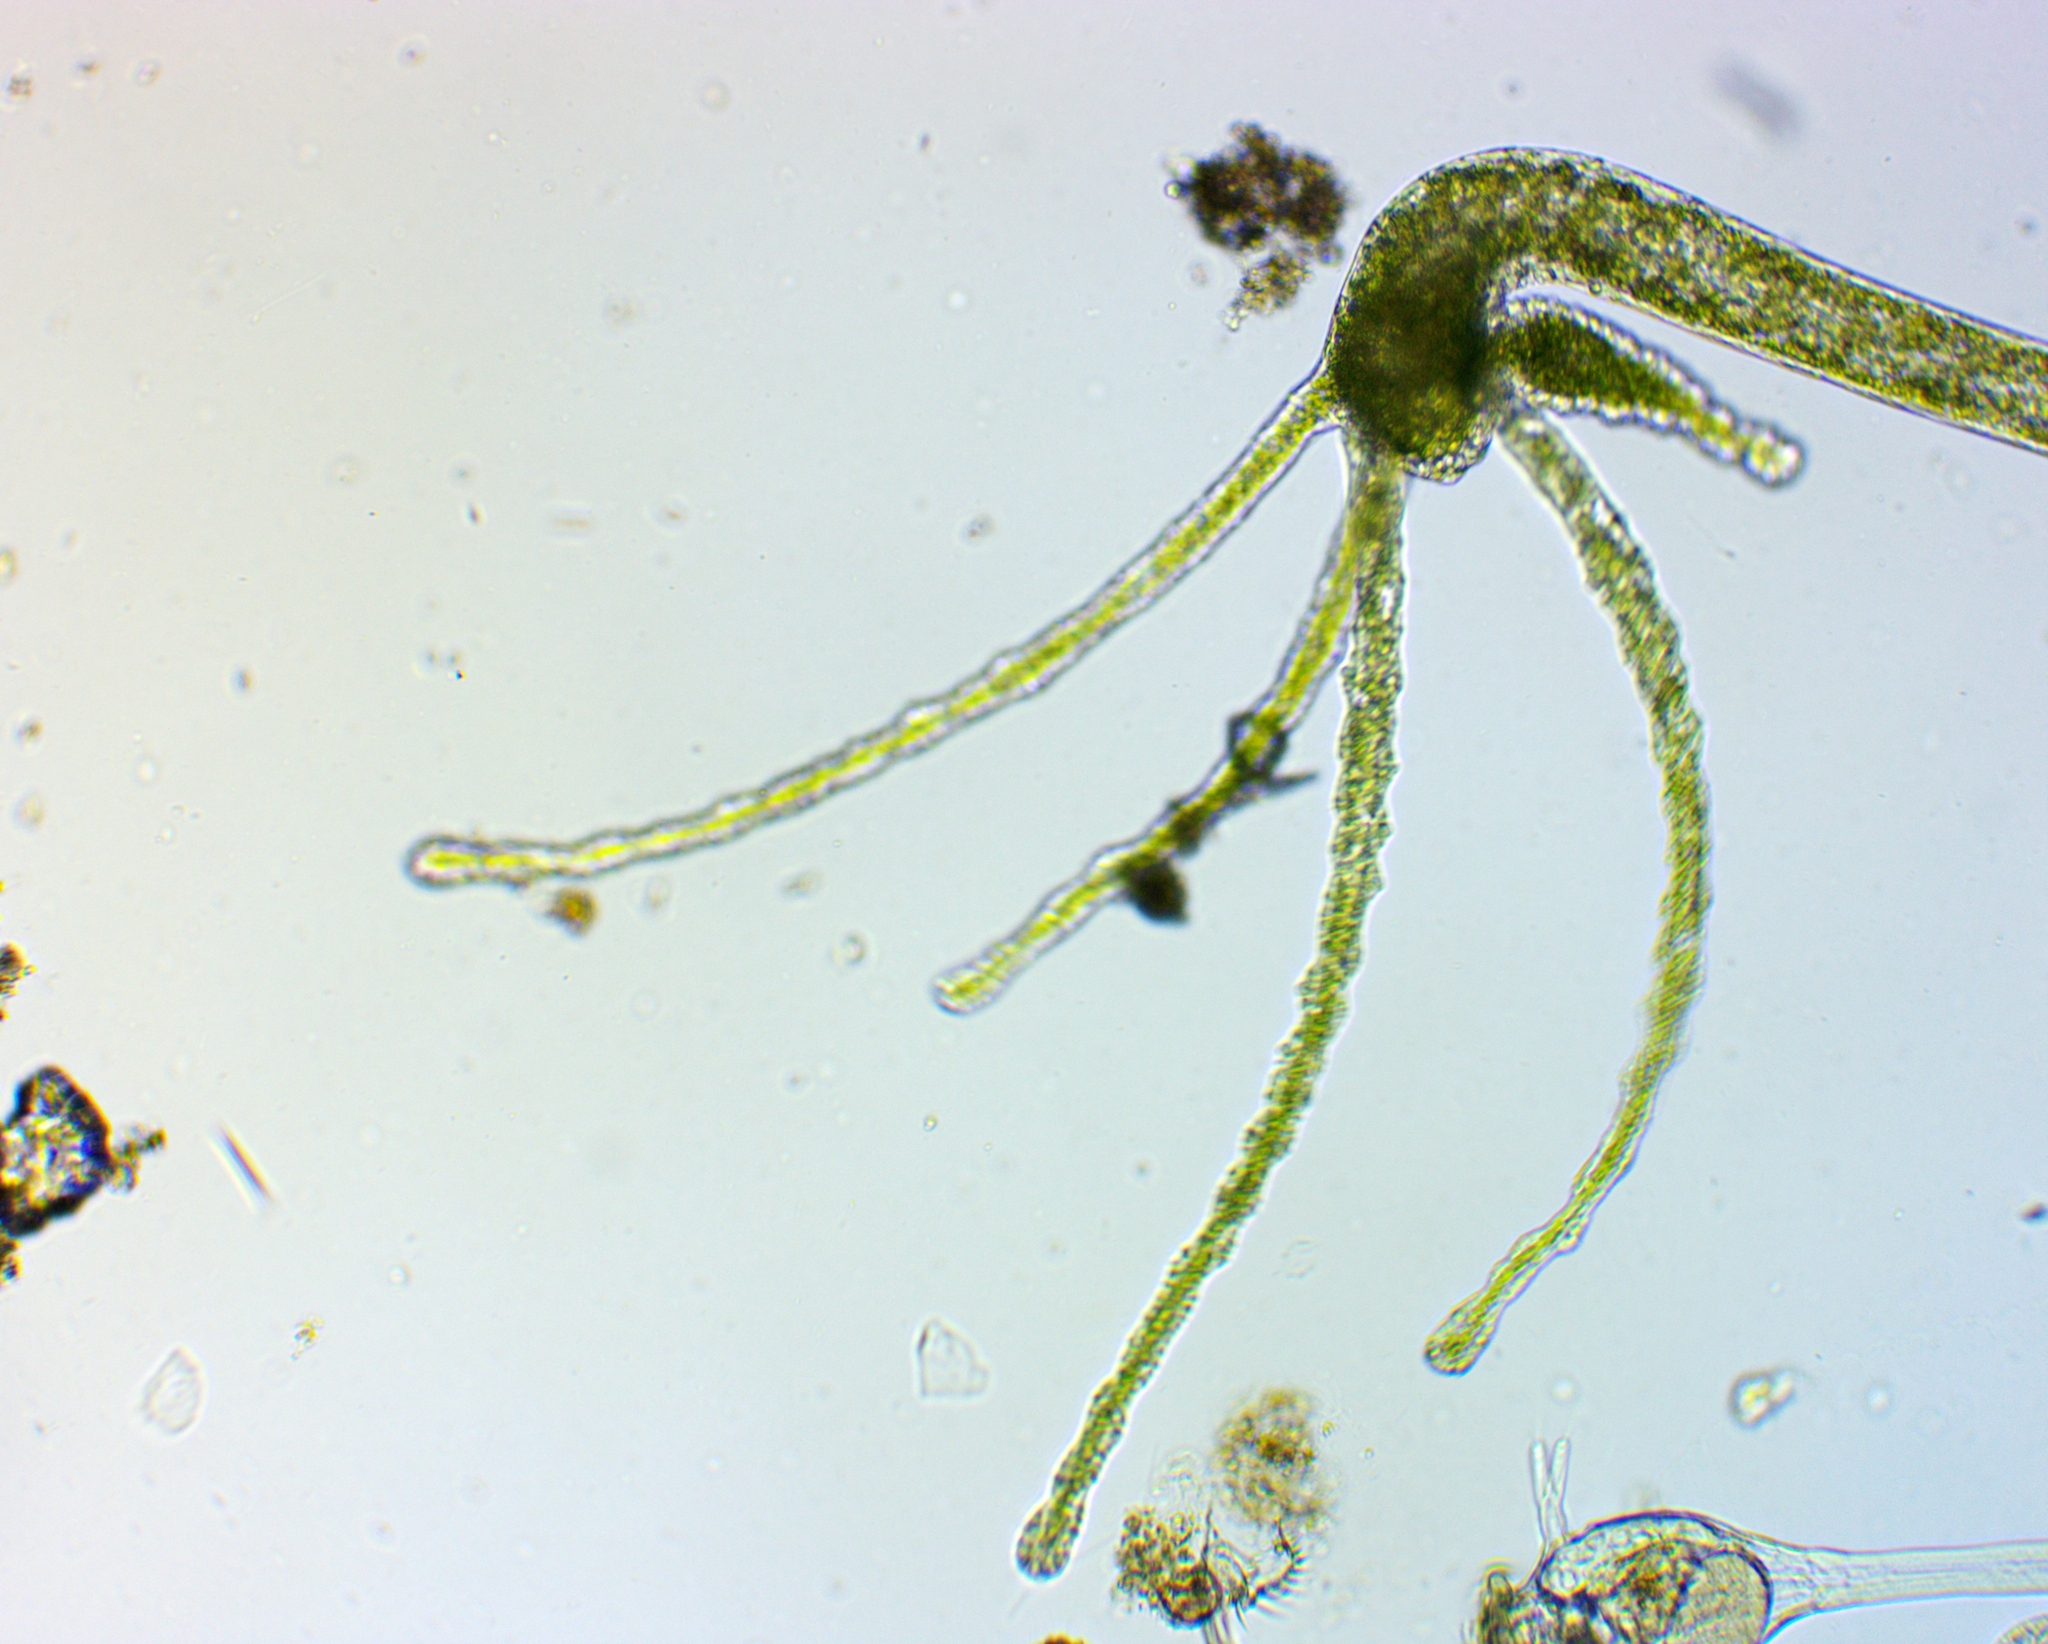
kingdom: Animalia
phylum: Cnidaria
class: Hydrozoa
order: Anthoathecata
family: Hydridae
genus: Hydra
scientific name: Hydra viridissima
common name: Green hydra
